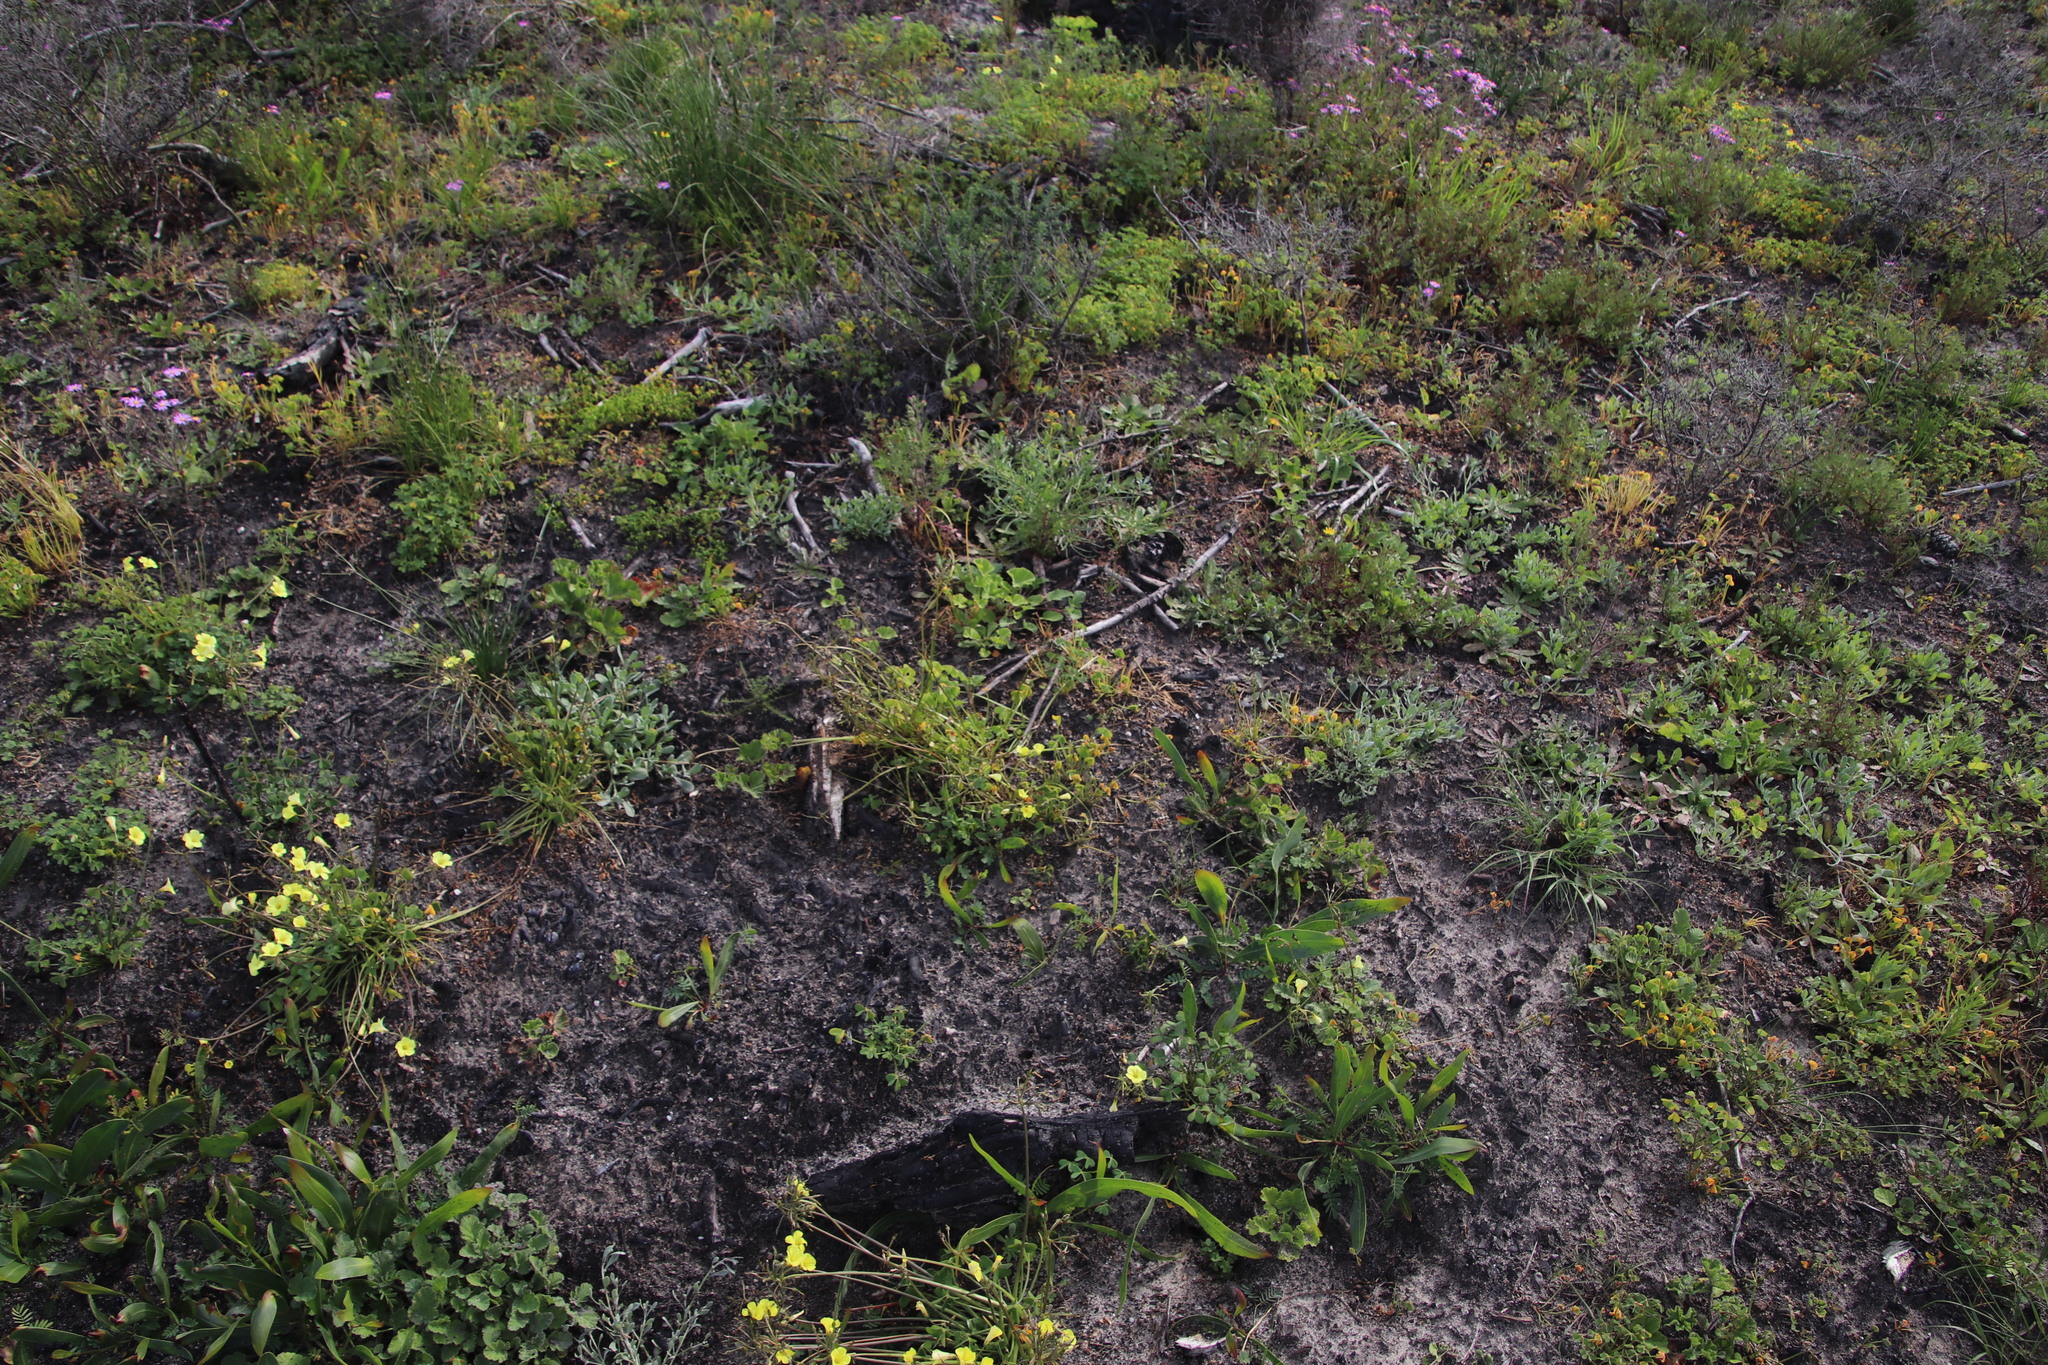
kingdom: Plantae
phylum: Tracheophyta
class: Magnoliopsida
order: Oxalidales
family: Oxalidaceae
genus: Oxalis
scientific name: Oxalis pes-caprae
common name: Bermuda-buttercup
